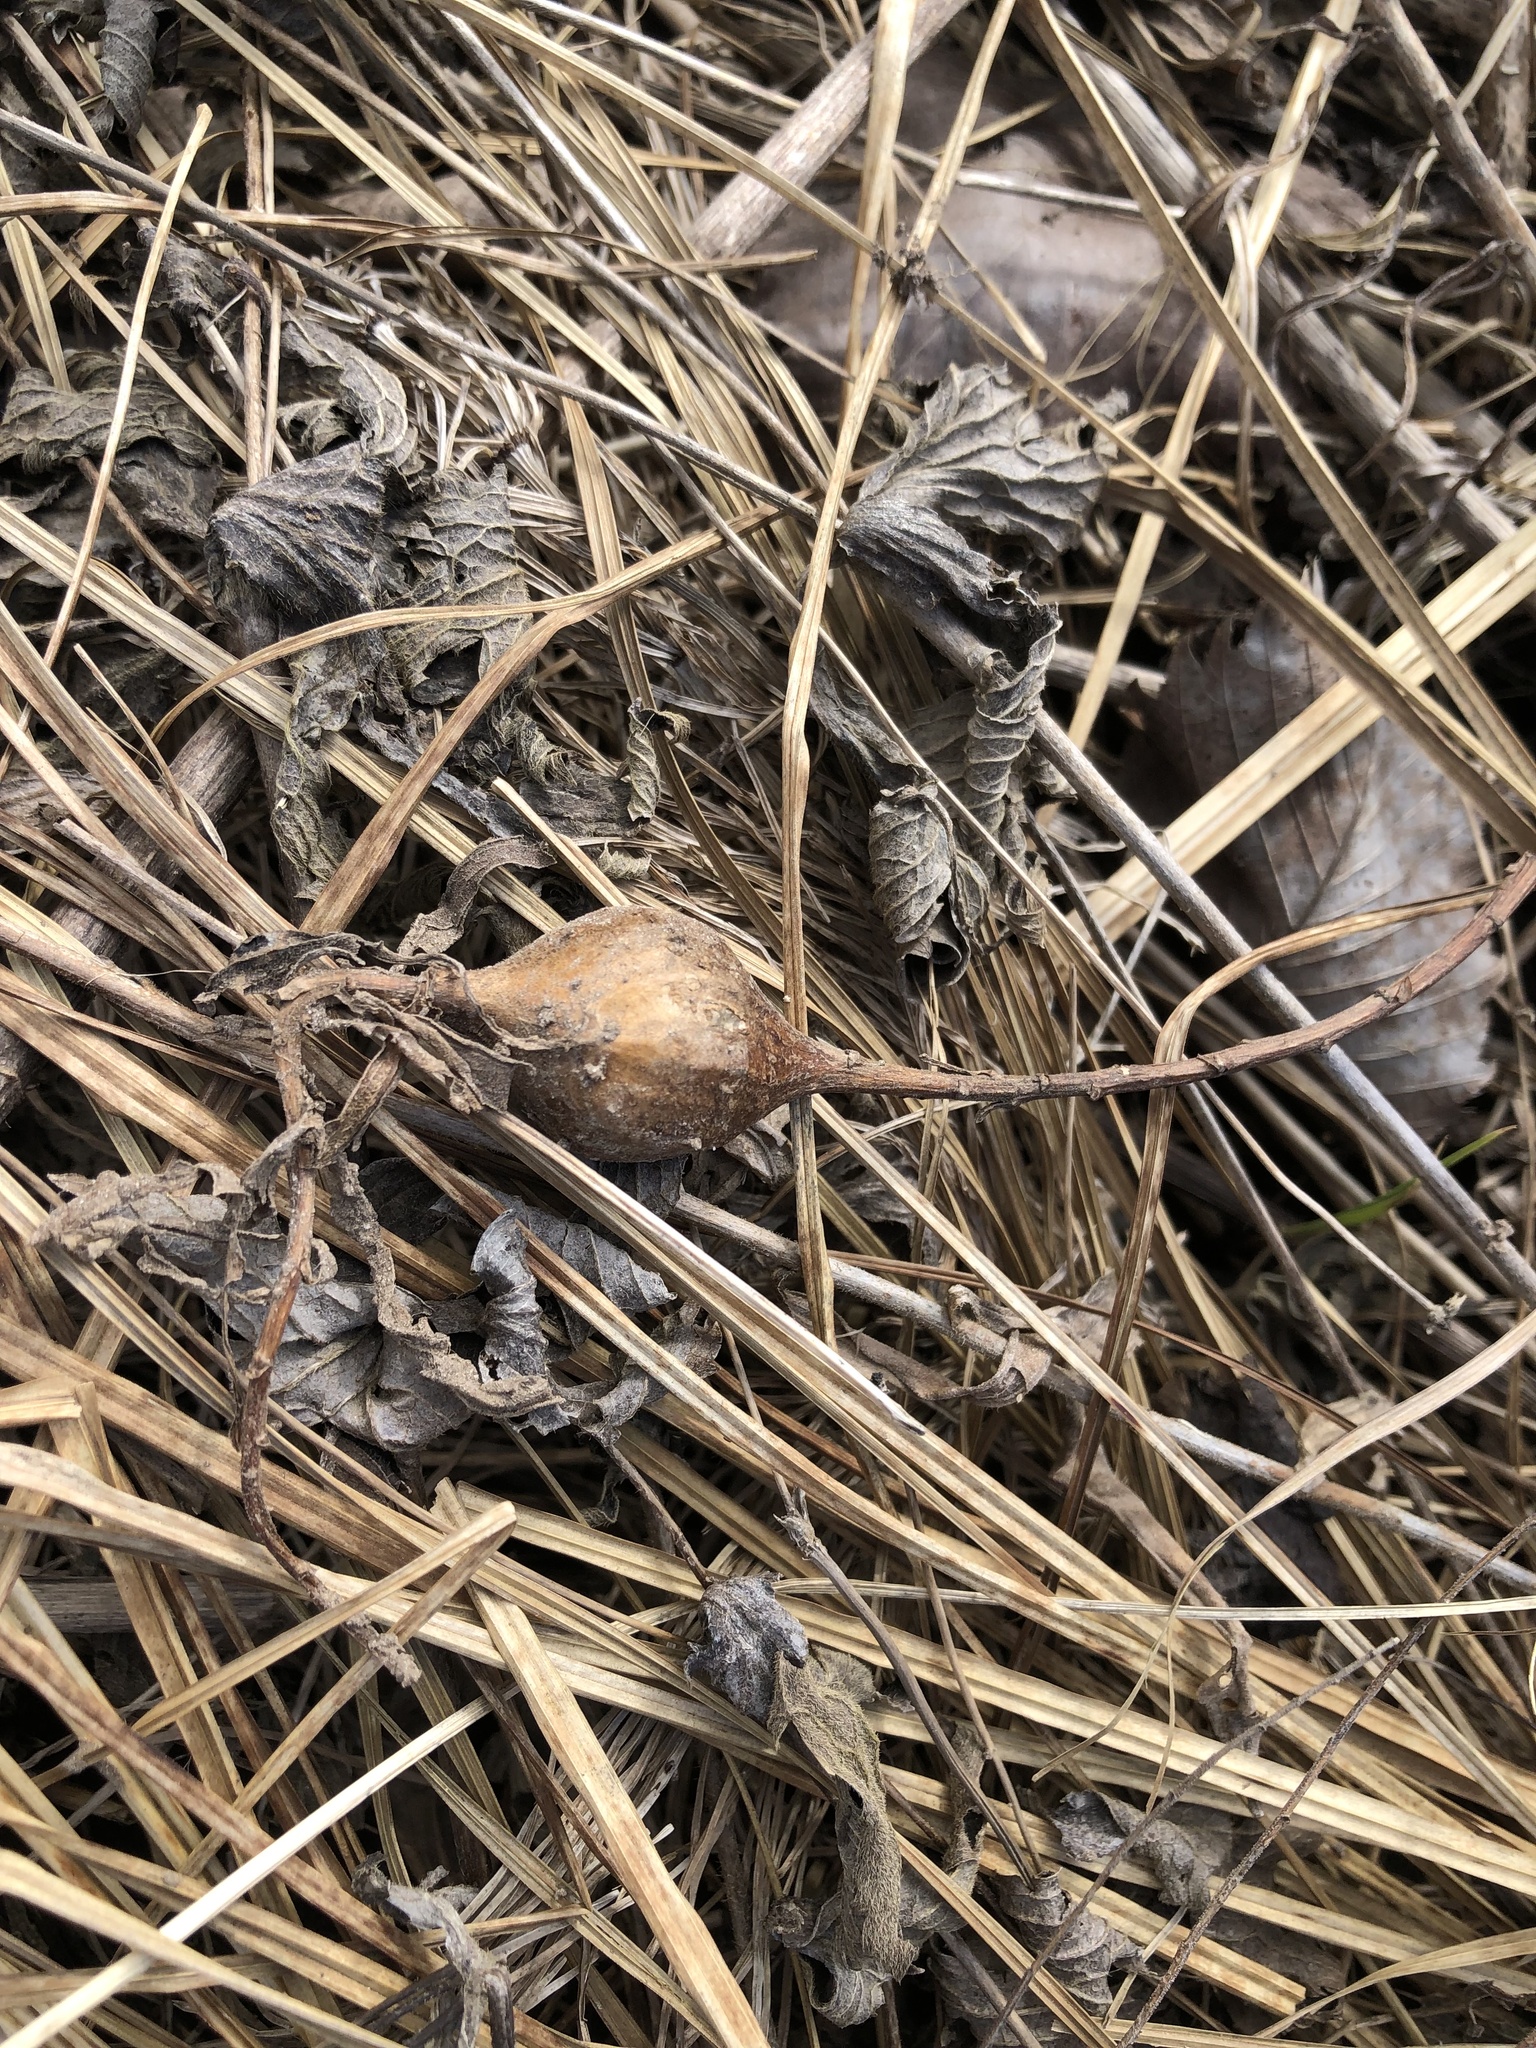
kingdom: Animalia
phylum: Arthropoda
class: Insecta
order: Diptera
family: Tephritidae
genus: Eurosta
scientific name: Eurosta solidaginis
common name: Goldenrod gall fly
